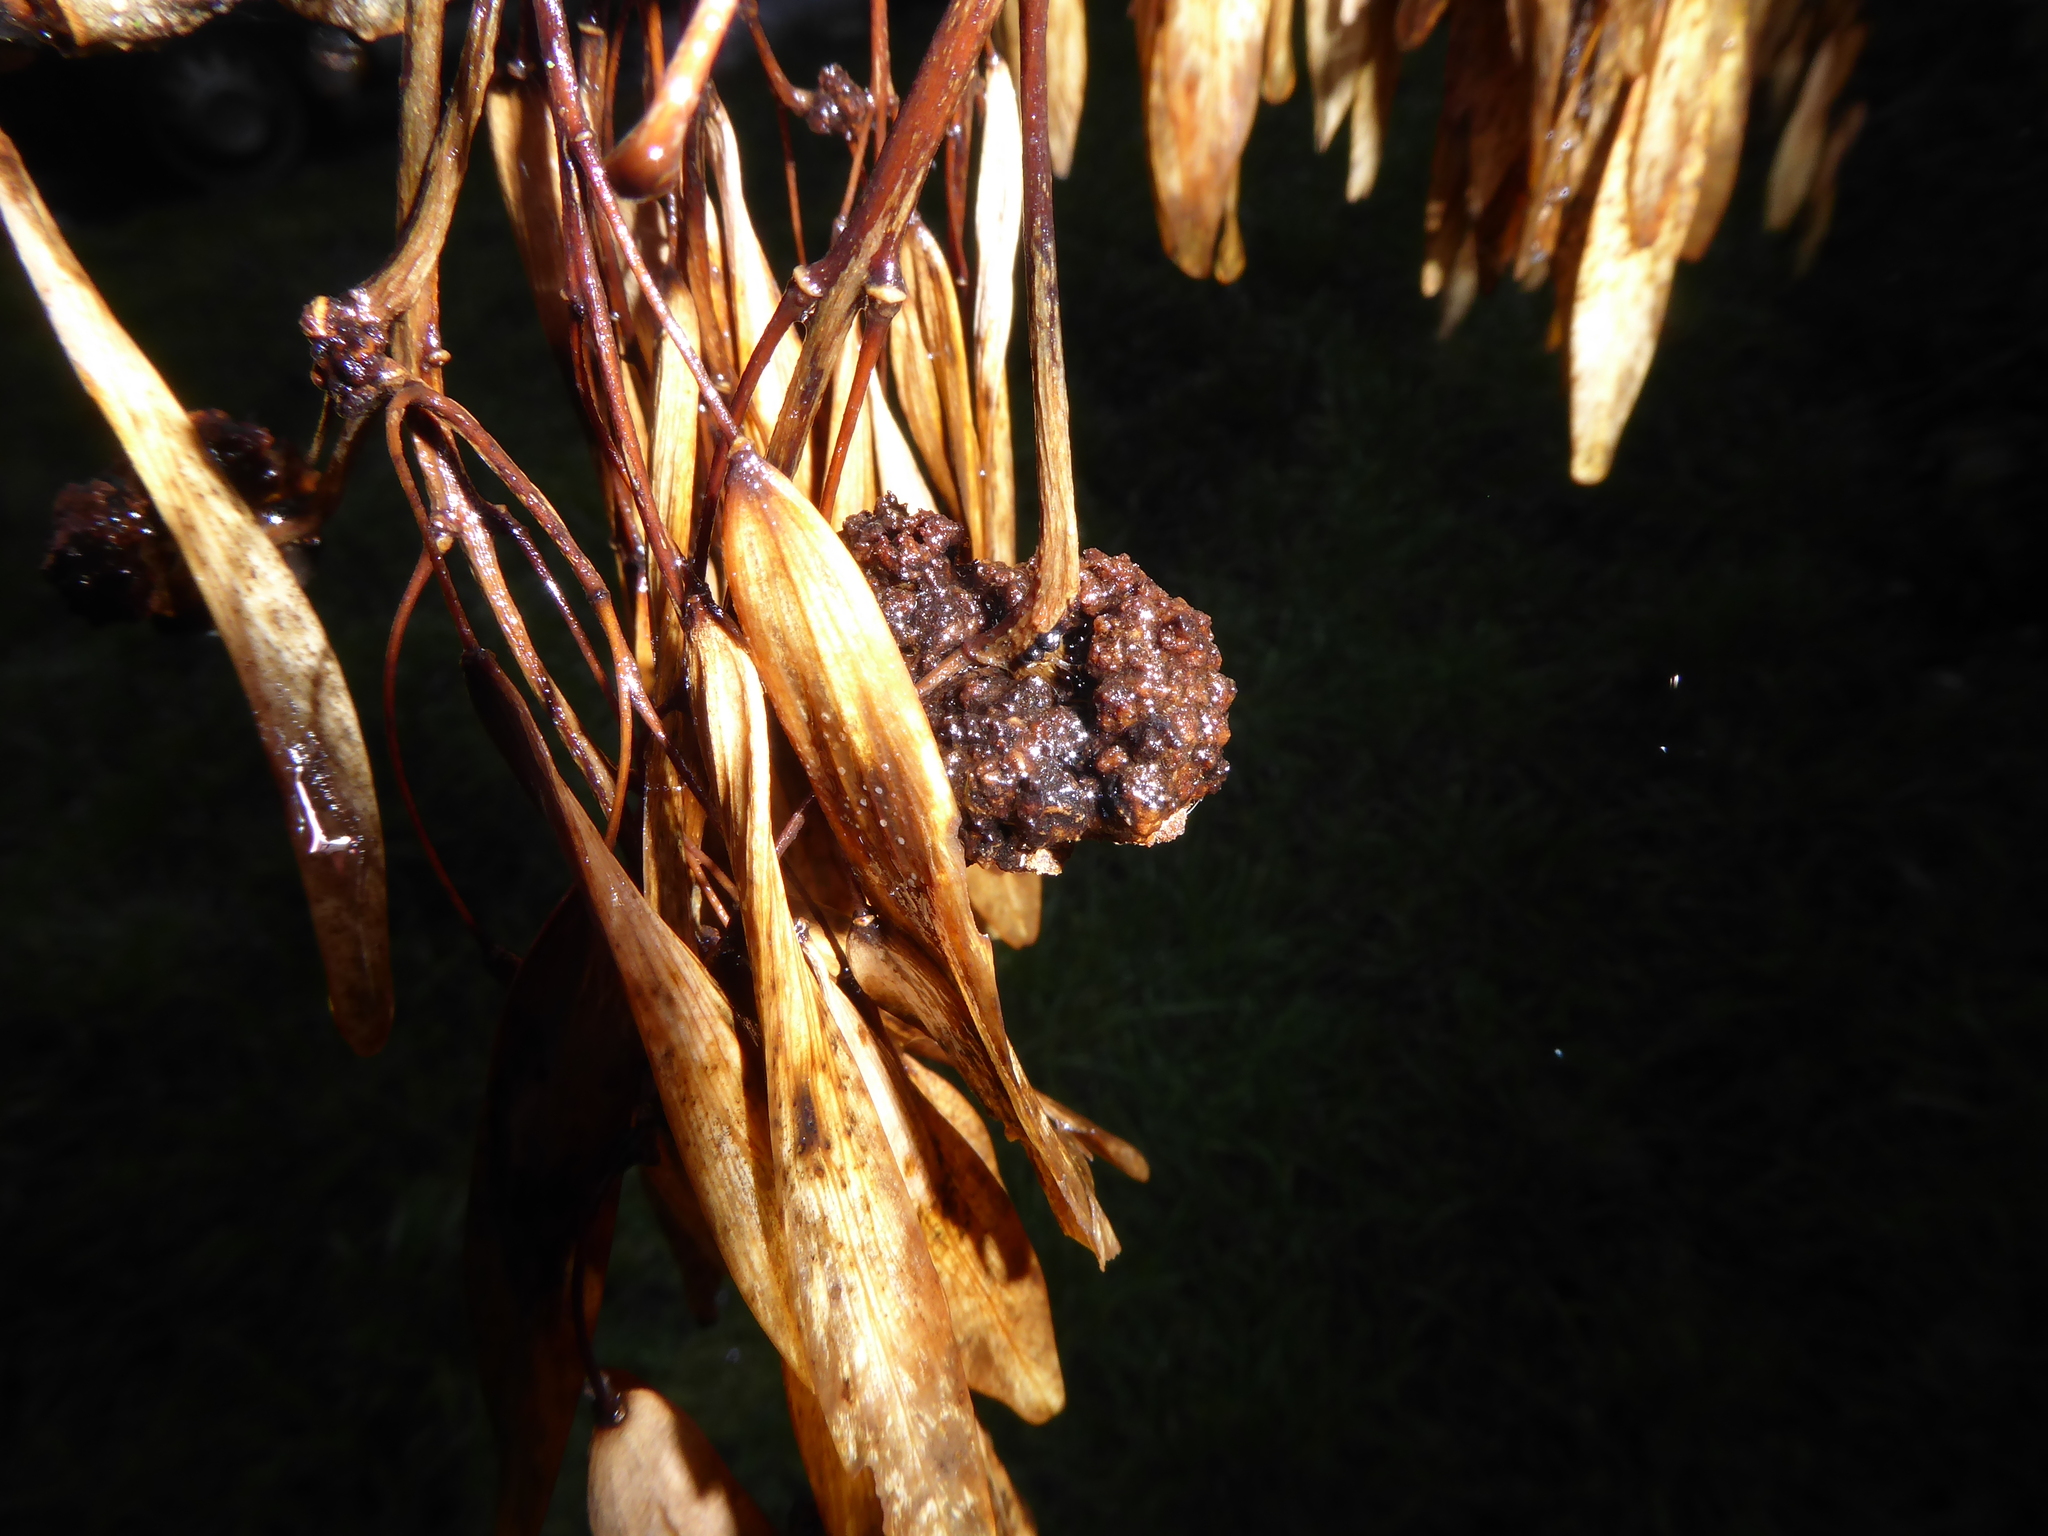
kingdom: Animalia
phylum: Arthropoda
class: Arachnida
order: Trombidiformes
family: Eriophyidae
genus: Aceria
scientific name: Aceria fraxinivora
